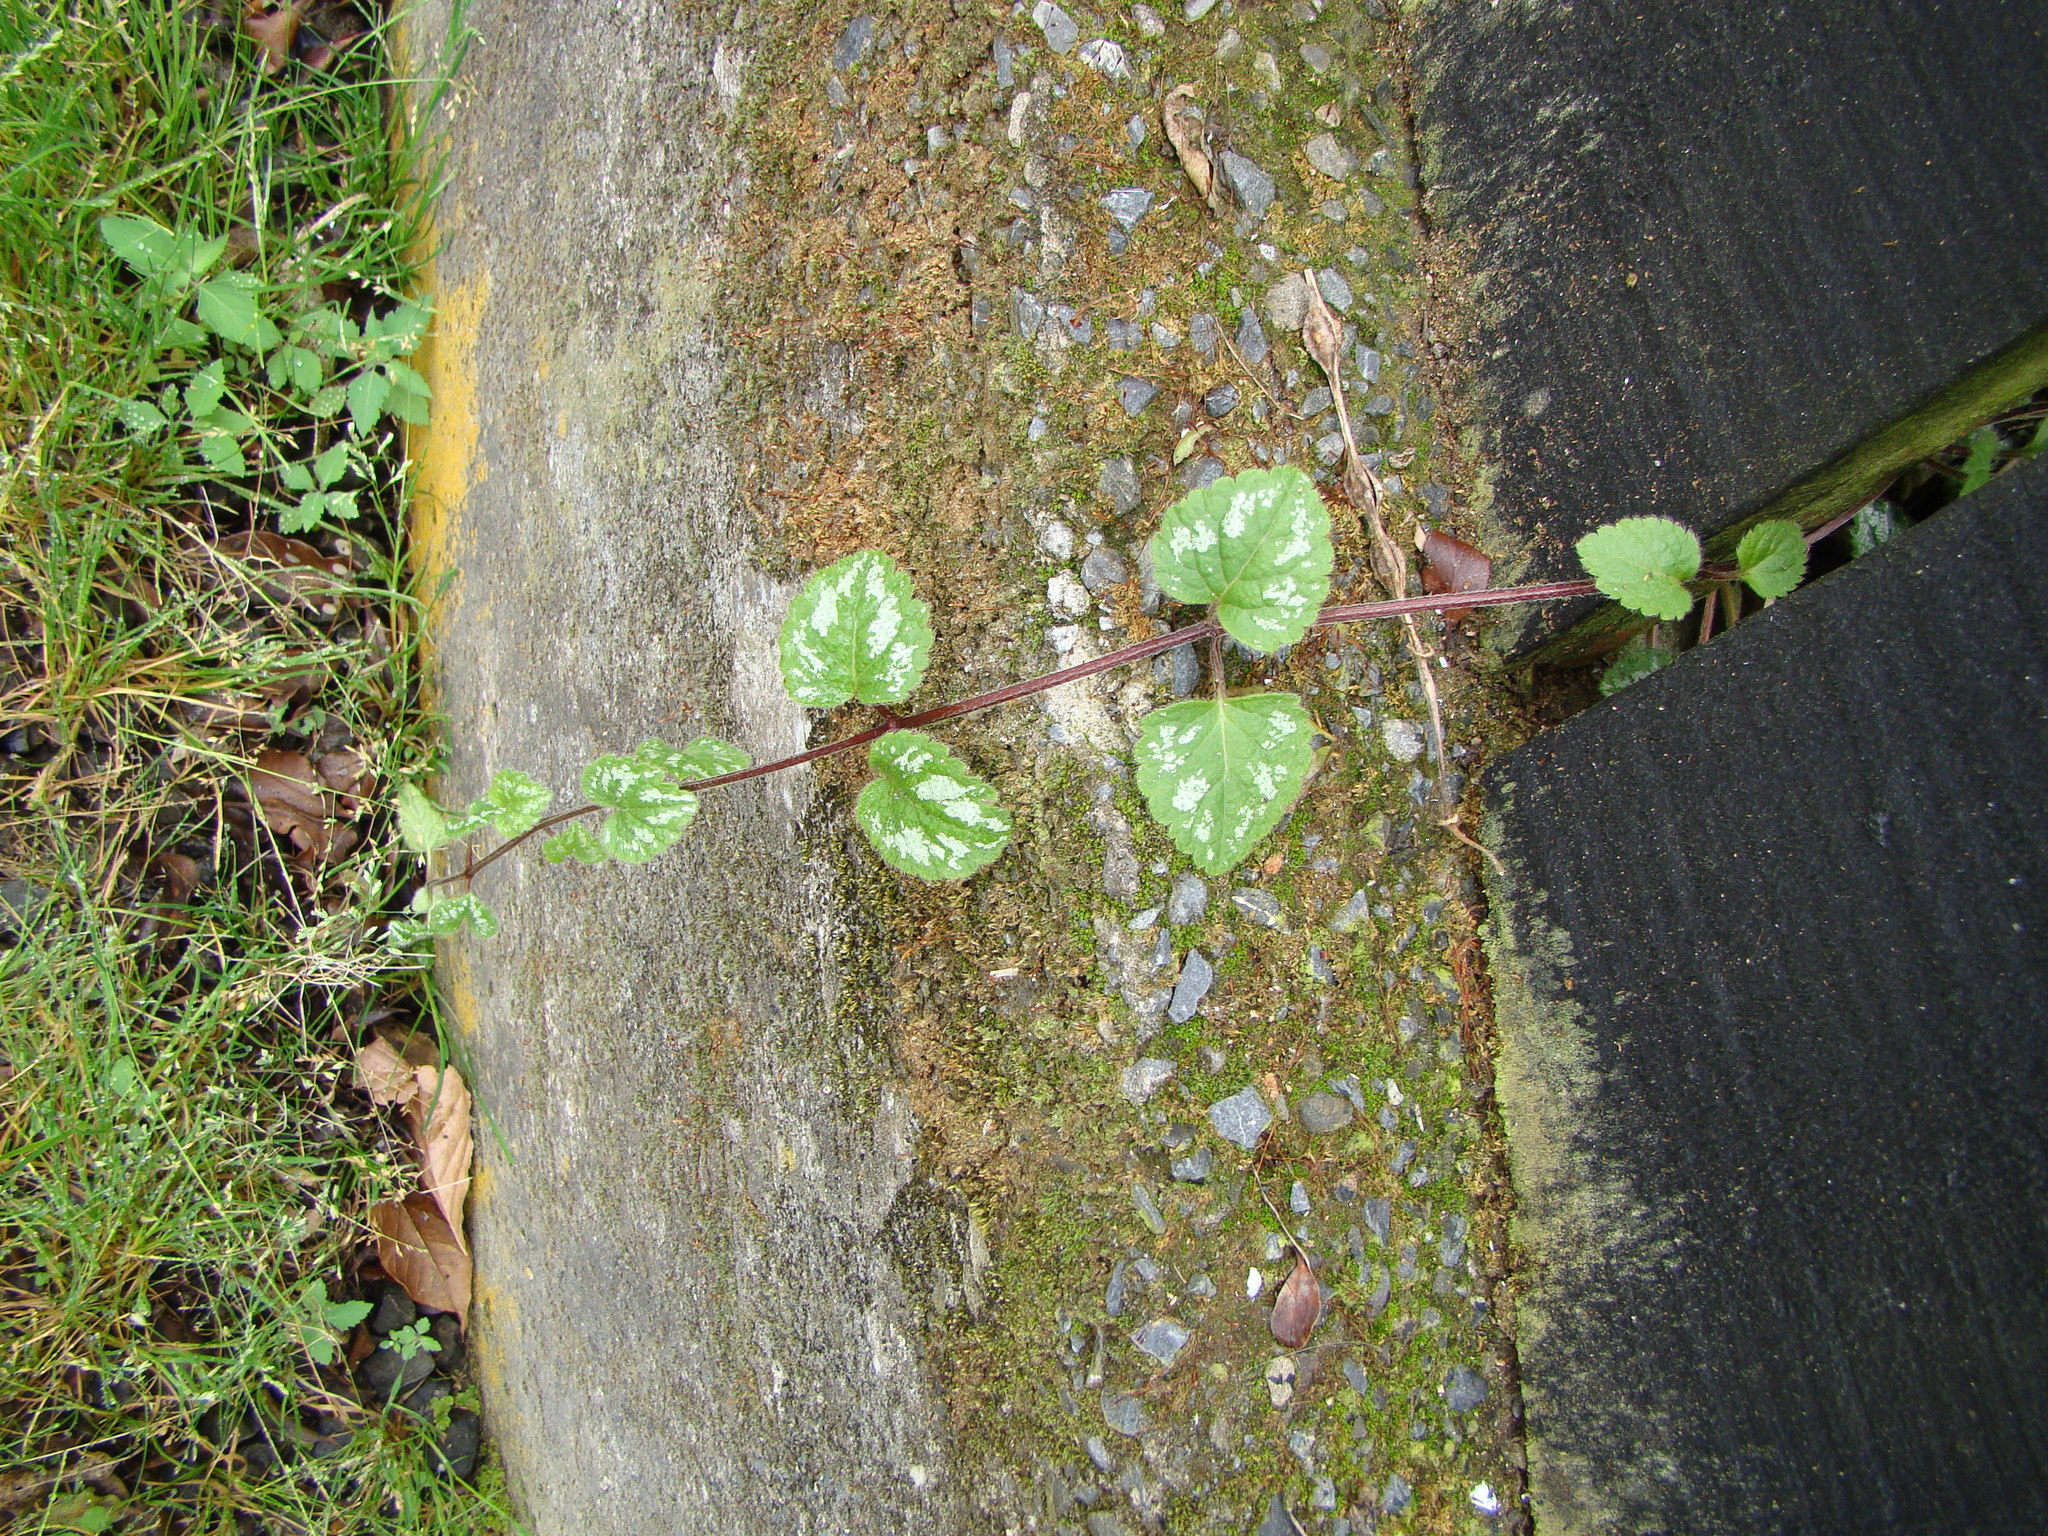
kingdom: Plantae
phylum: Tracheophyta
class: Magnoliopsida
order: Lamiales
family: Lamiaceae
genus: Lamium
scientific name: Lamium galeobdolon
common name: Yellow archangel
